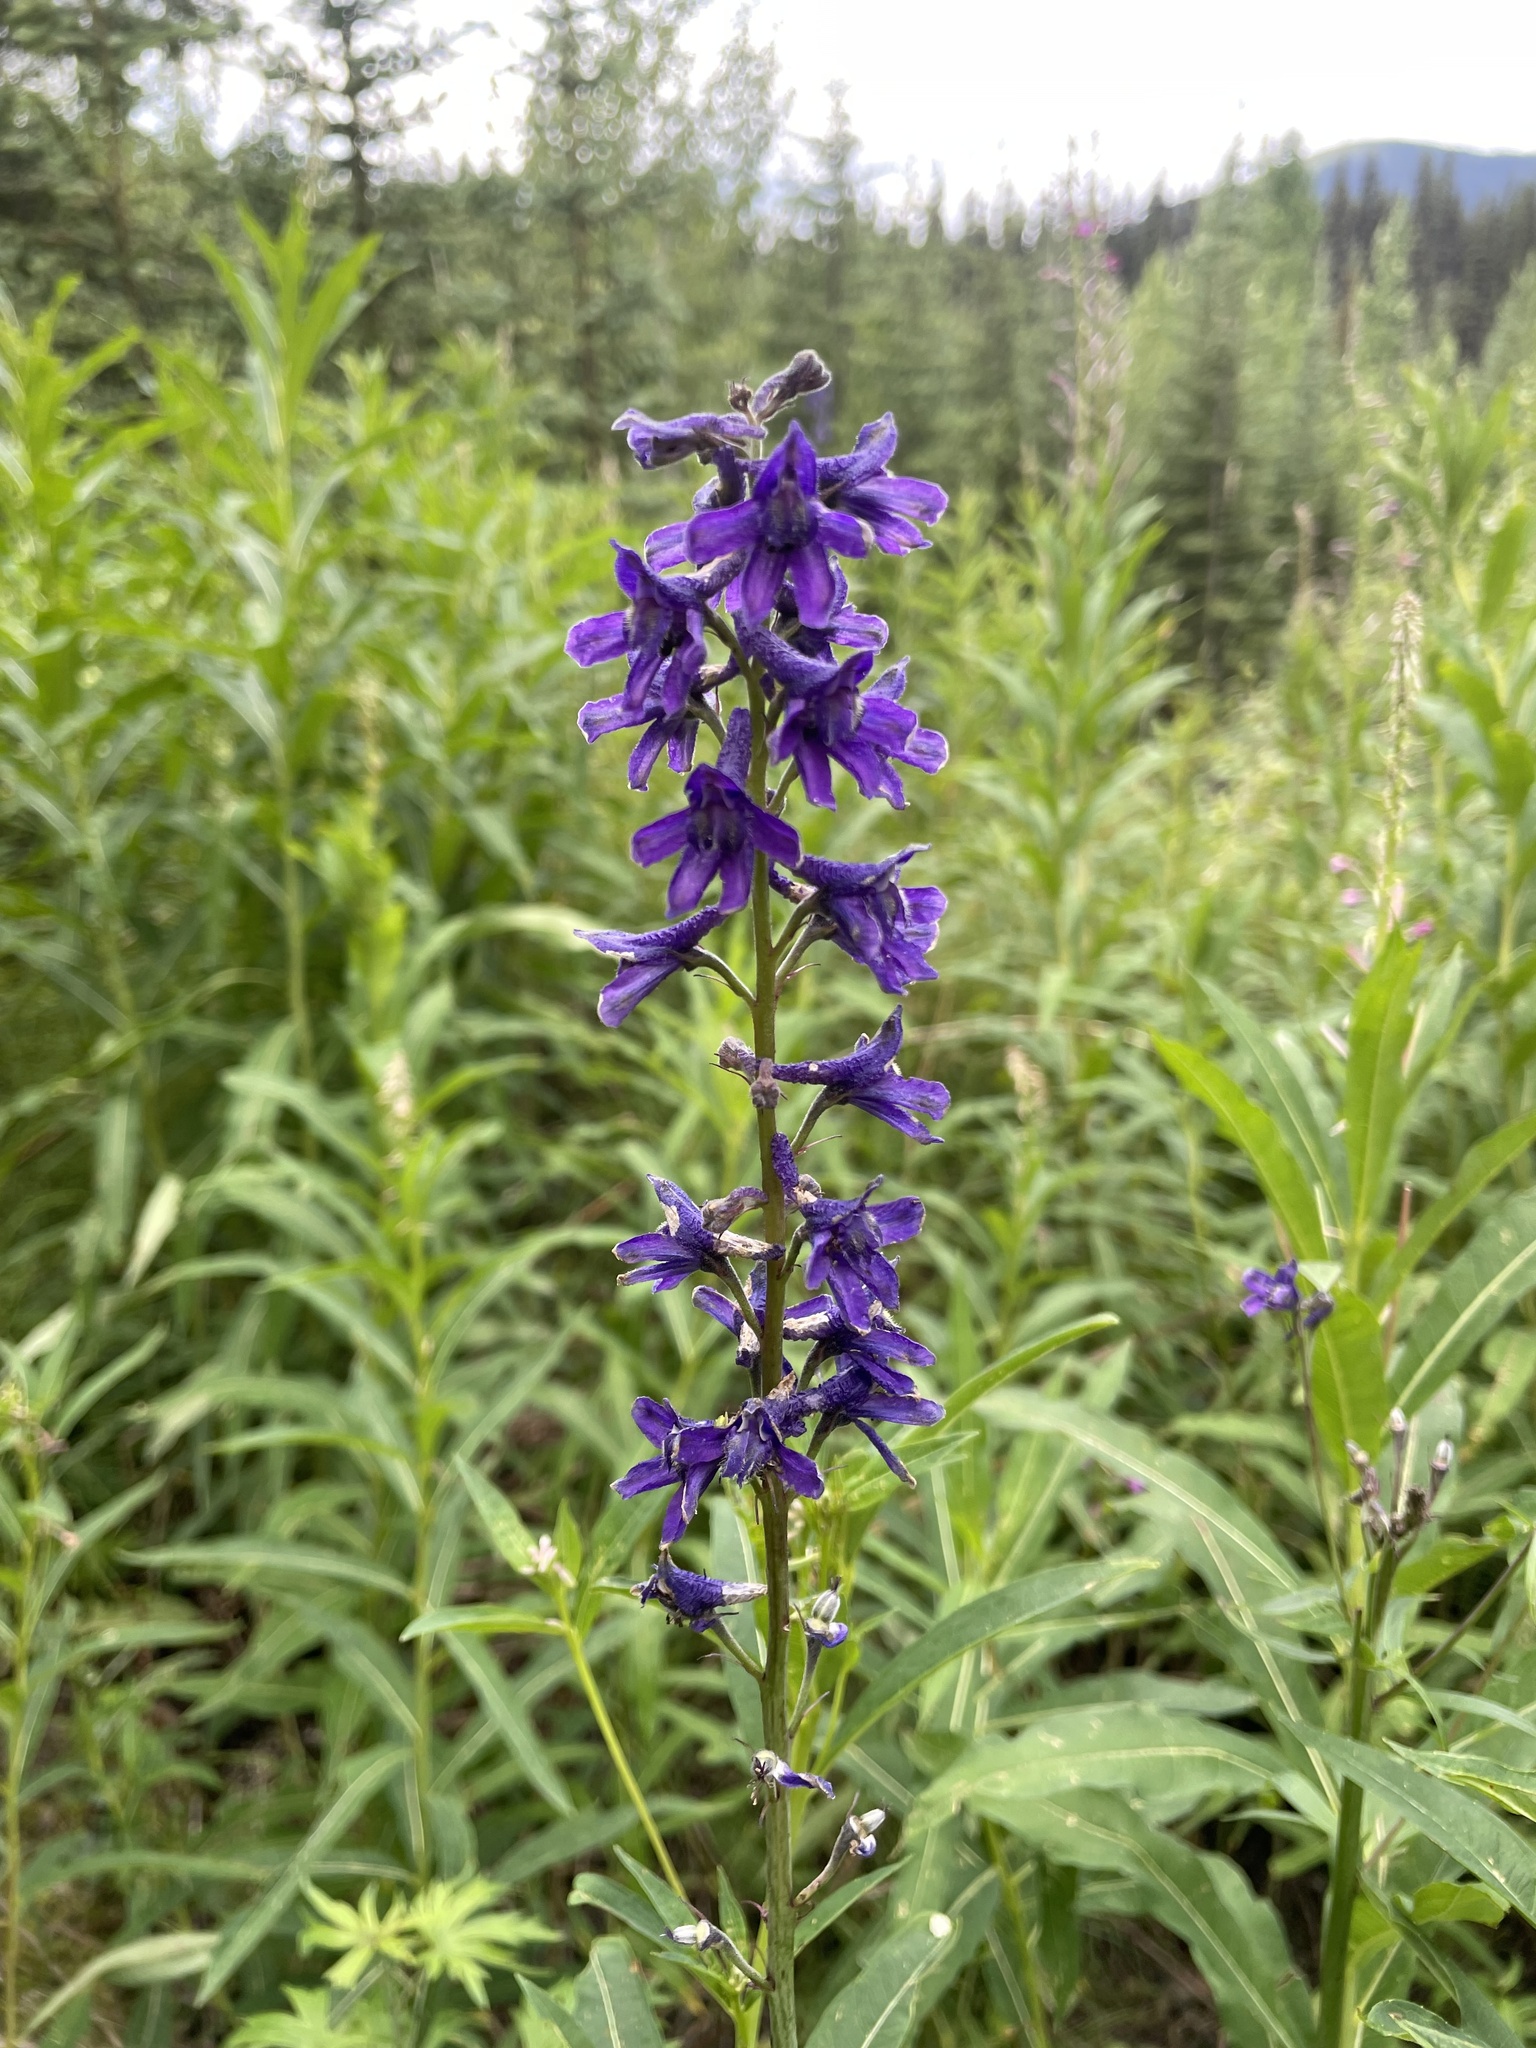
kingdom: Plantae
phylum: Tracheophyta
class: Magnoliopsida
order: Ranunculales
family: Ranunculaceae
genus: Delphinium
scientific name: Delphinium glaucum
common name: Brown's larkspur
